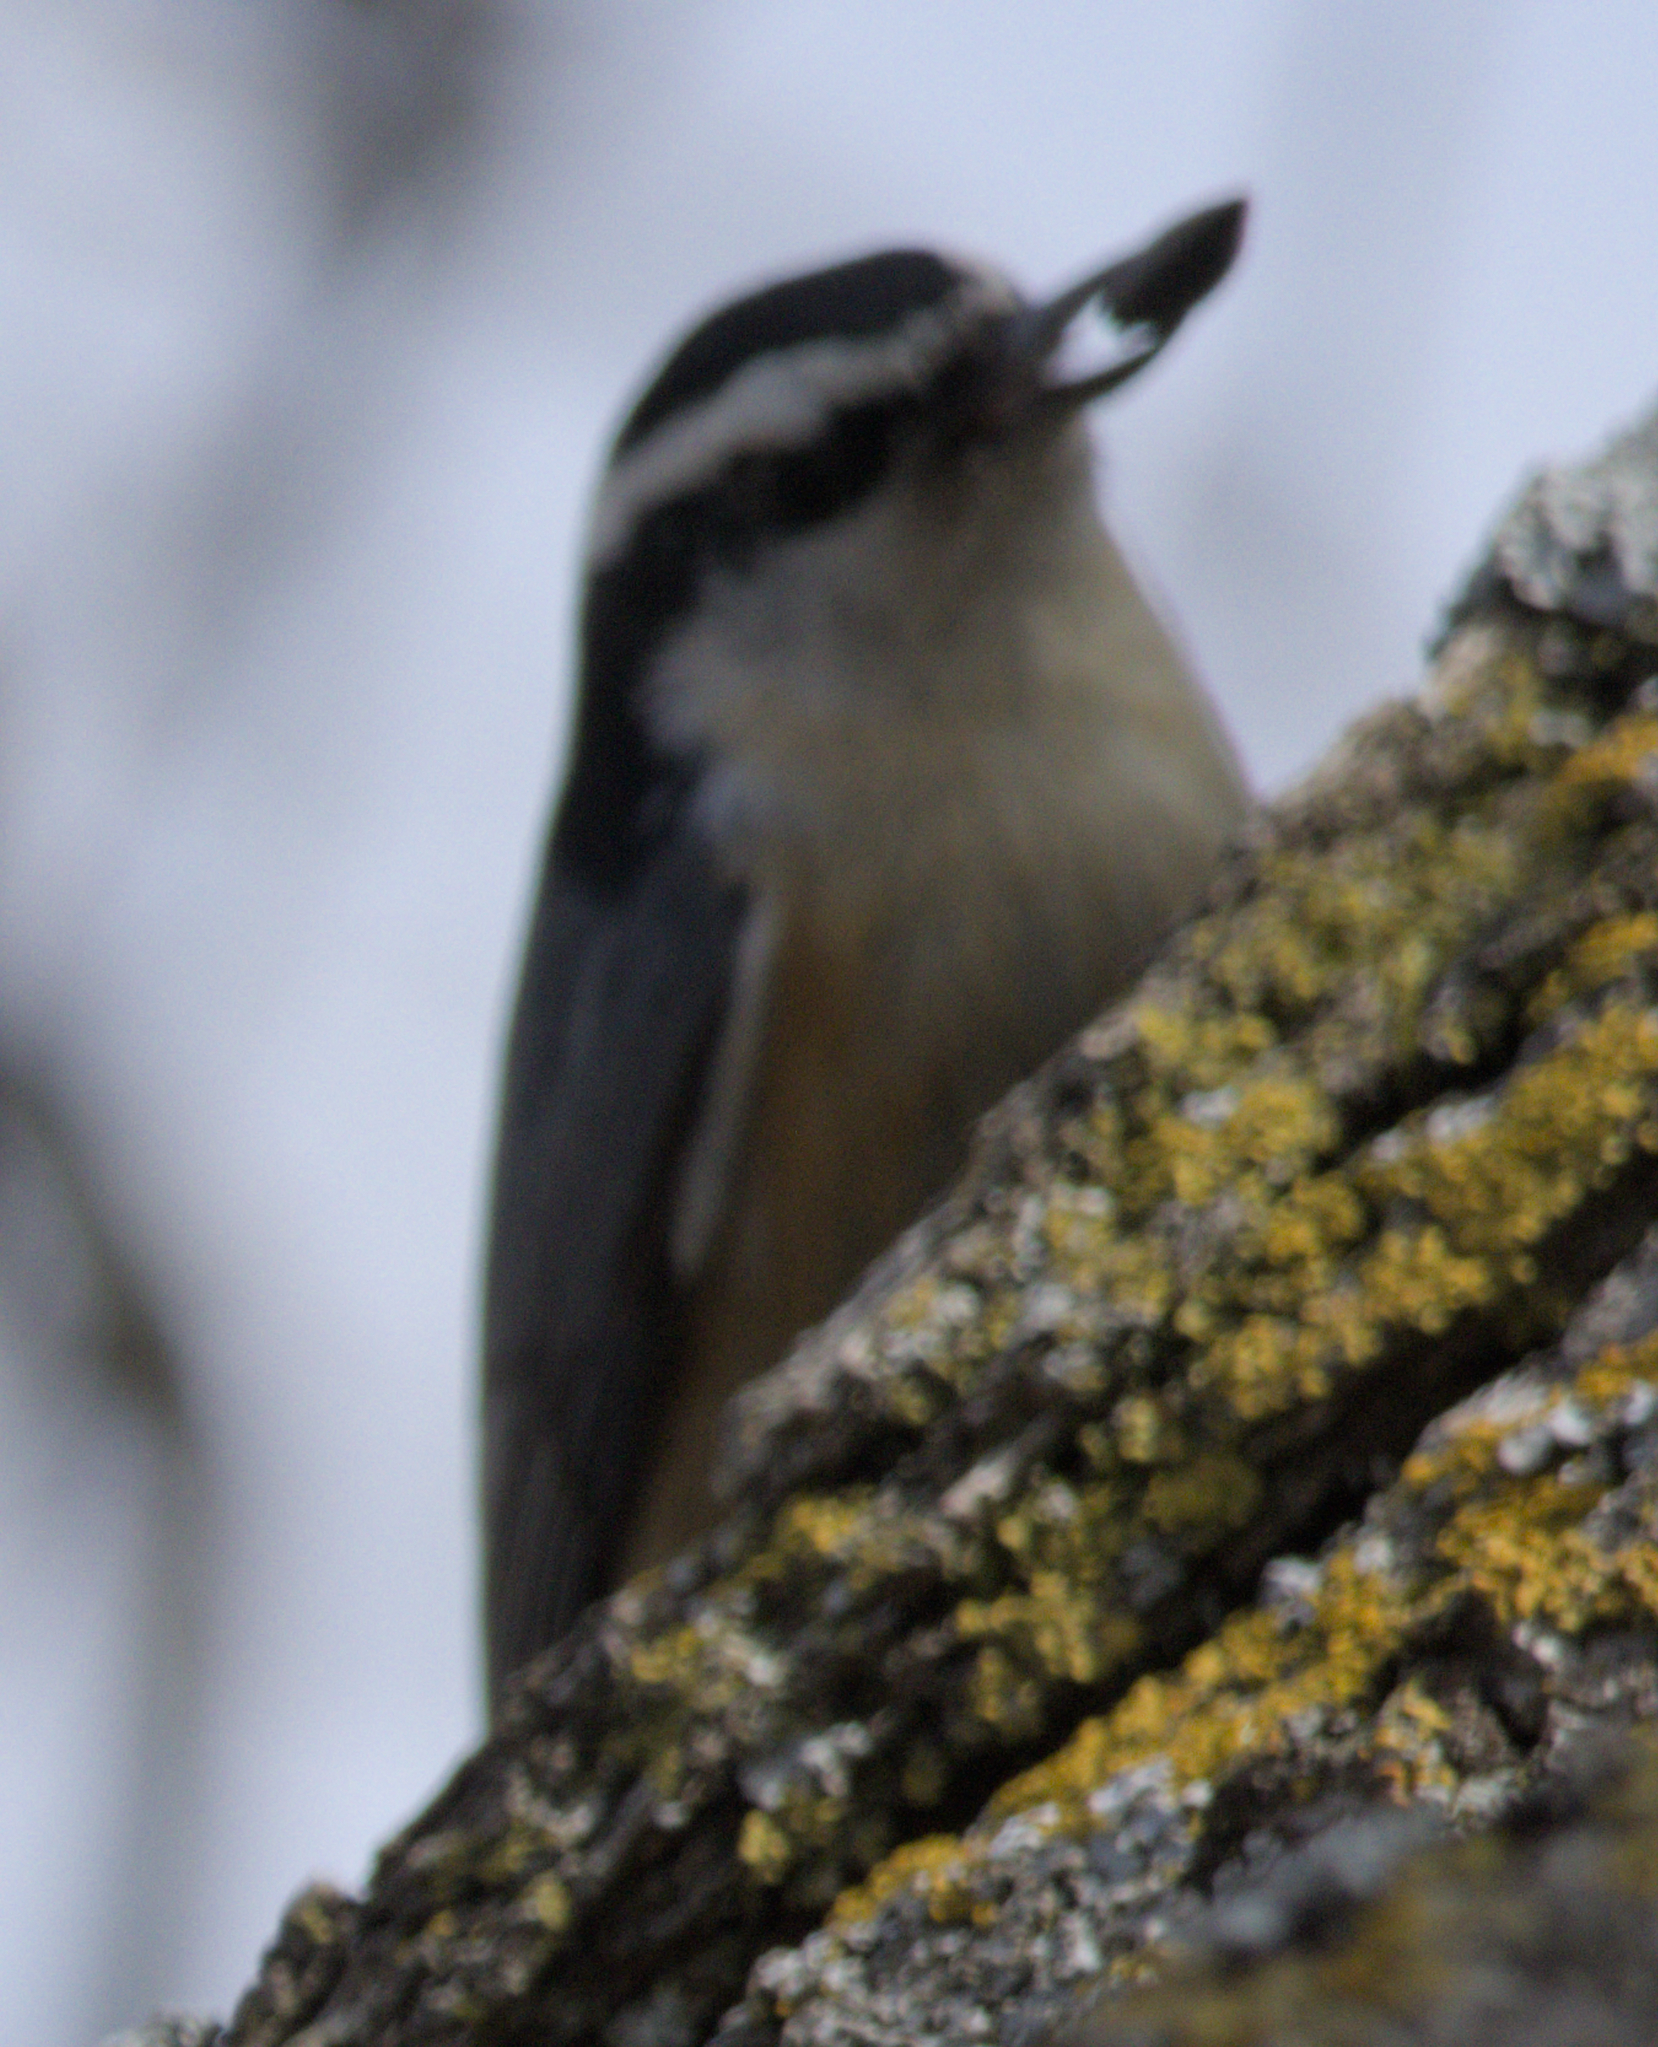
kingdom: Animalia
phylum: Chordata
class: Aves
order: Passeriformes
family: Sittidae
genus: Sitta
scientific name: Sitta canadensis
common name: Red-breasted nuthatch
